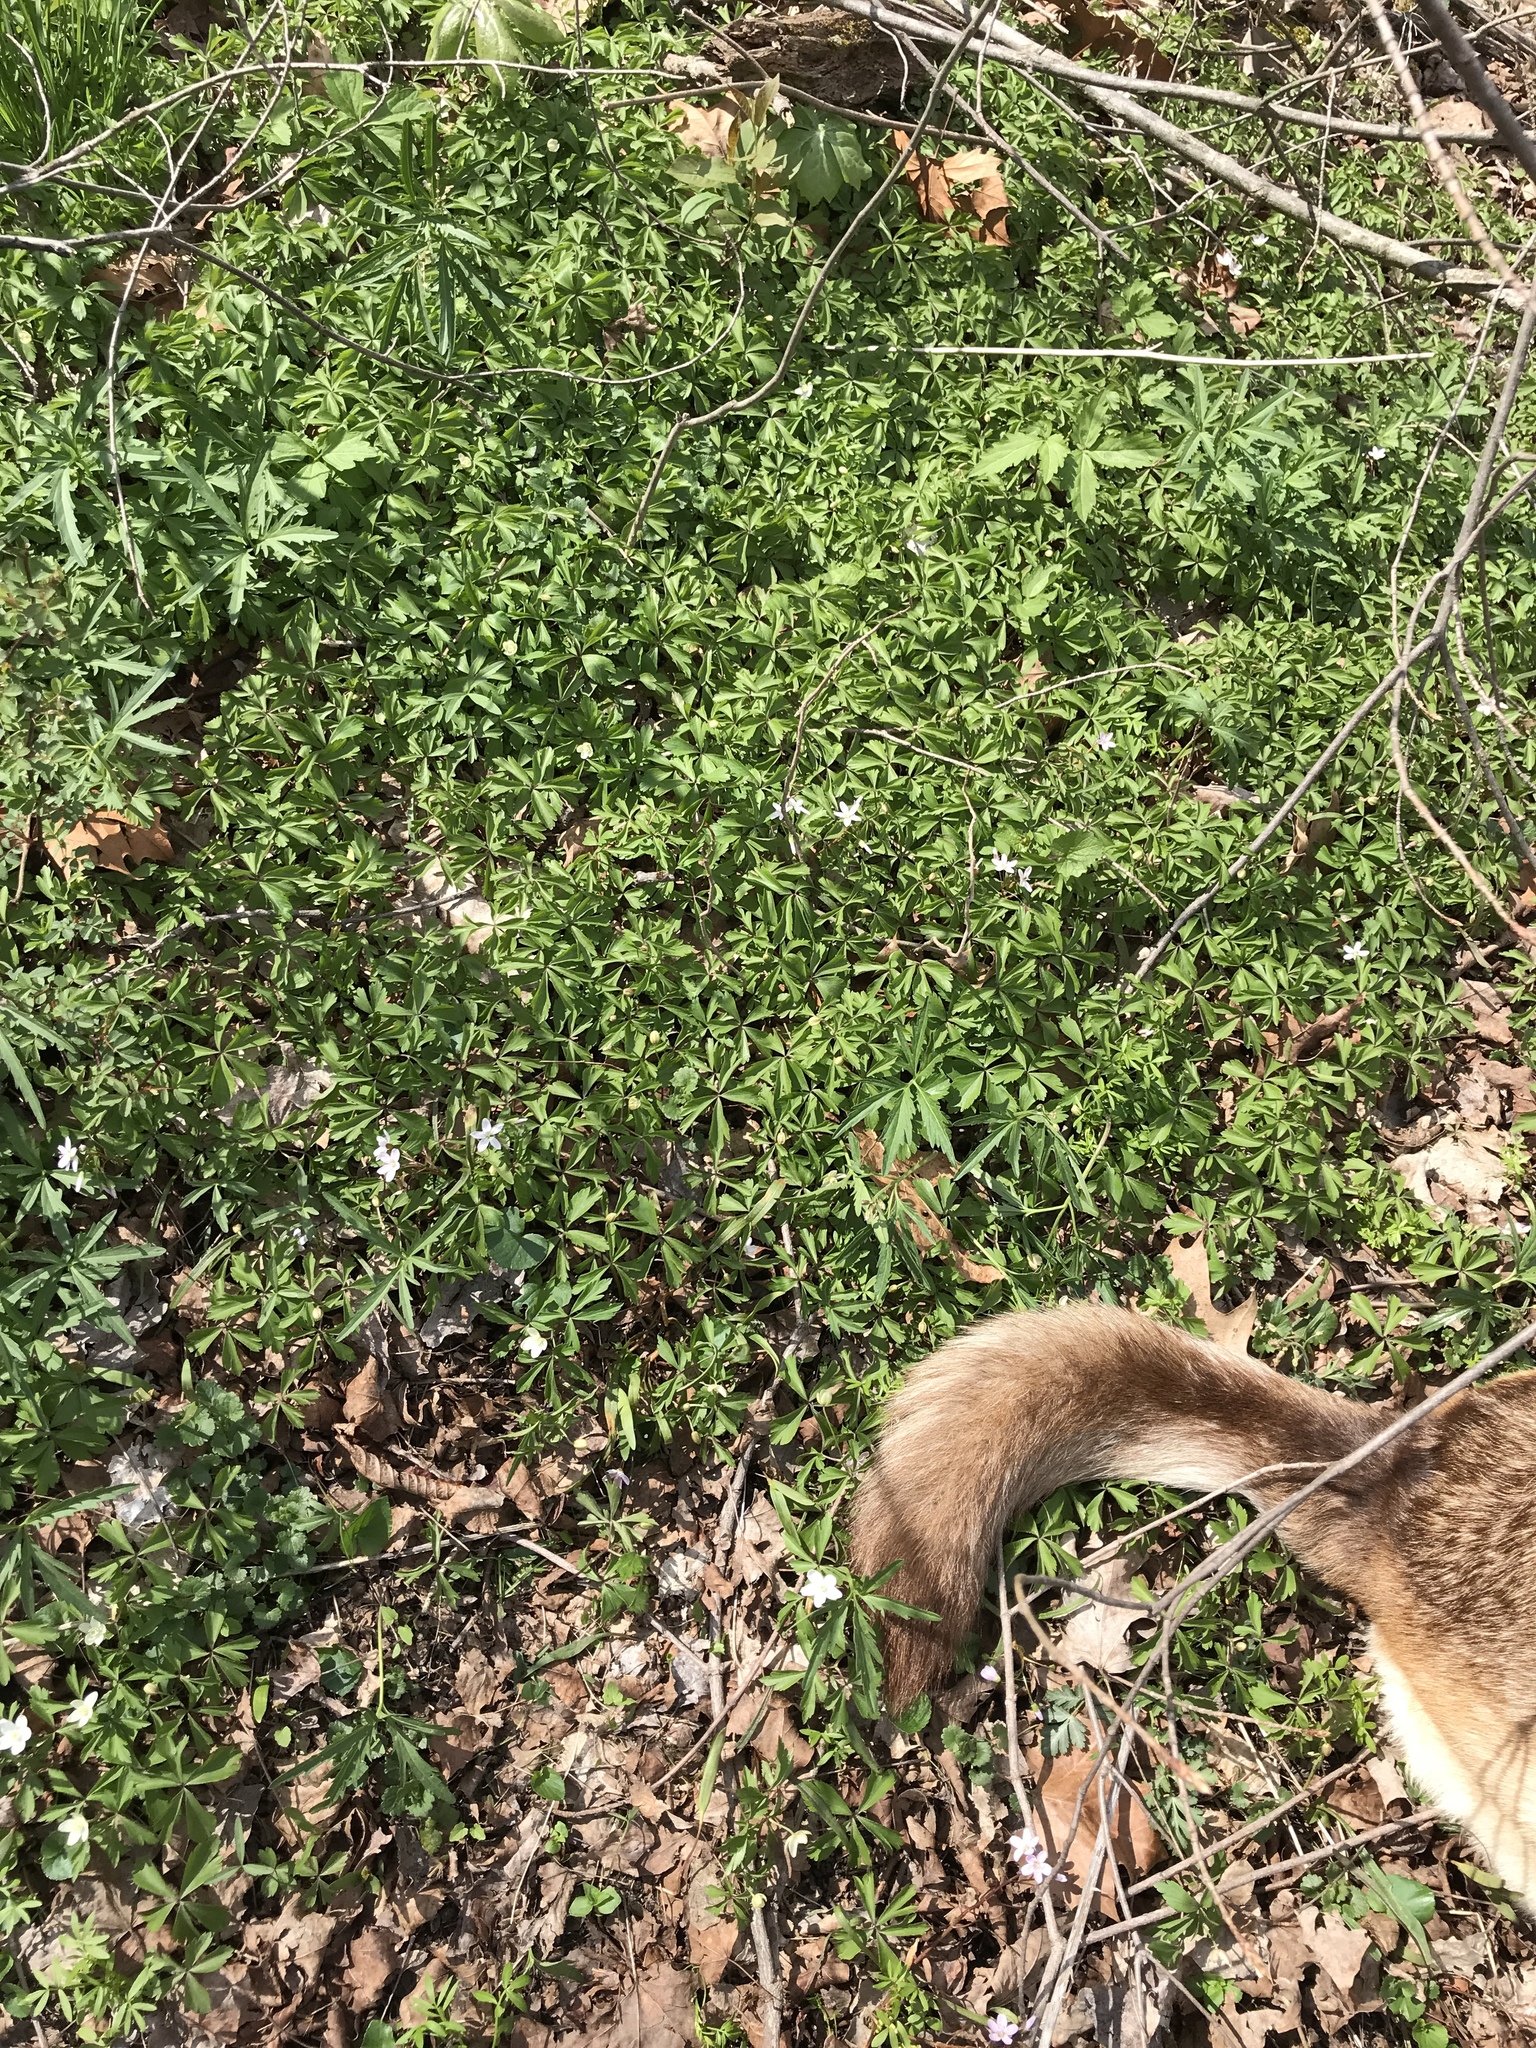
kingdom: Plantae
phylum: Tracheophyta
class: Magnoliopsida
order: Ranunculales
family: Ranunculaceae
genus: Anemone
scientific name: Anemone quinquefolia
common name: Wood anemone
